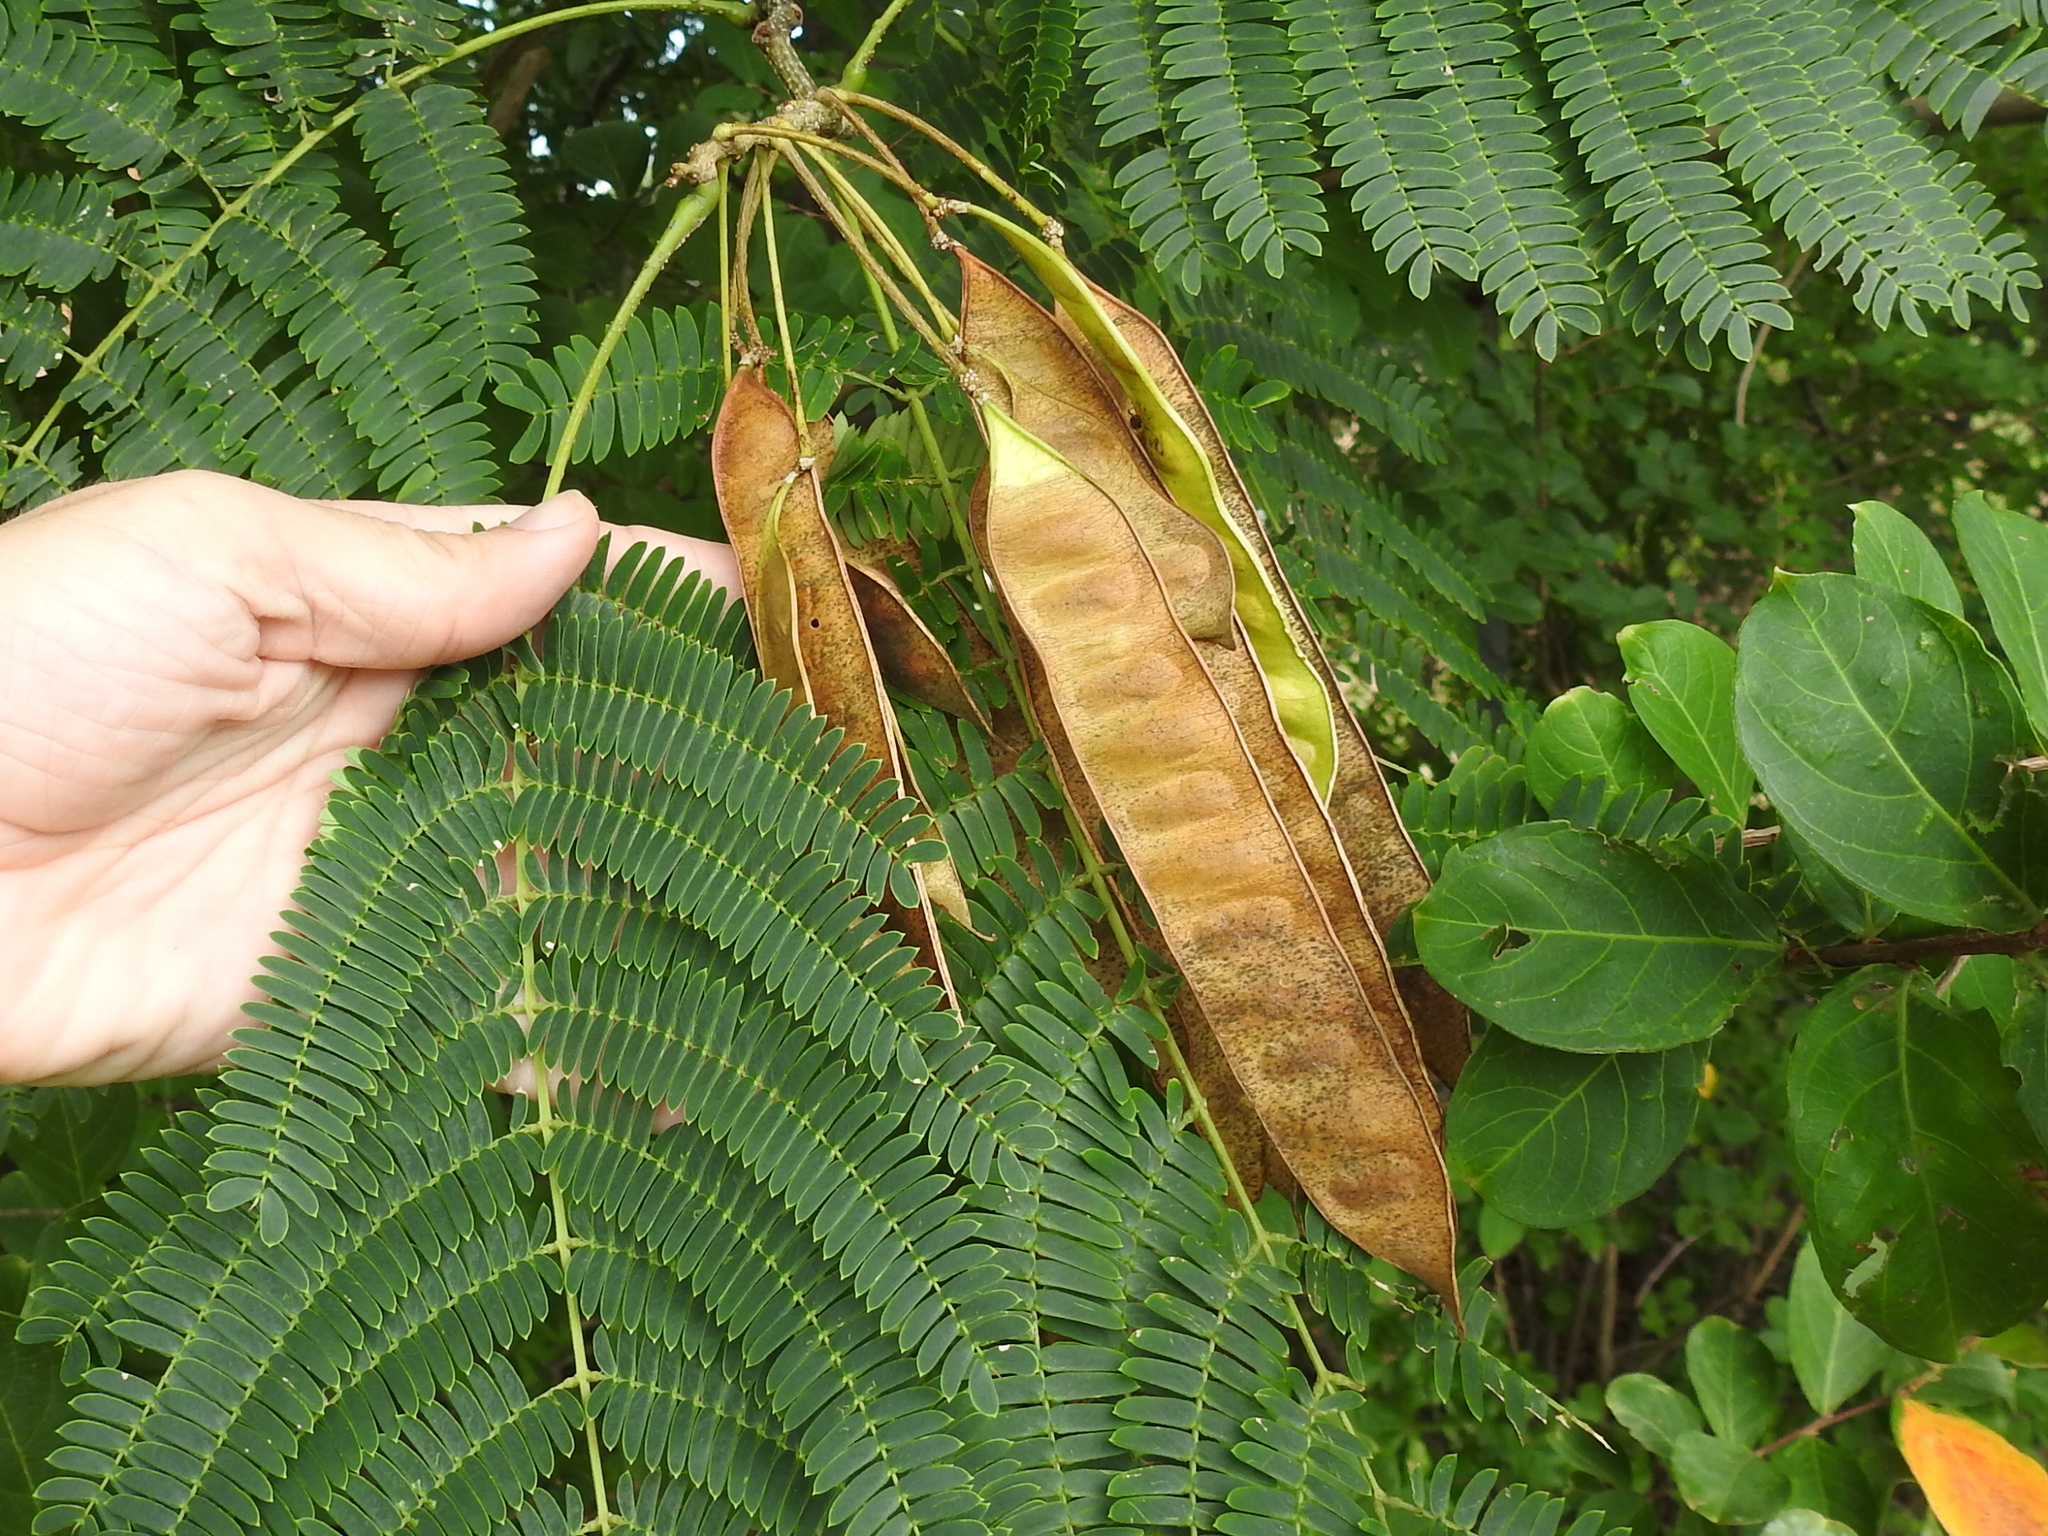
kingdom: Plantae
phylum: Tracheophyta
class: Magnoliopsida
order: Fabales
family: Fabaceae
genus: Albizia
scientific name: Albizia julibrissin
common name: Silktree
